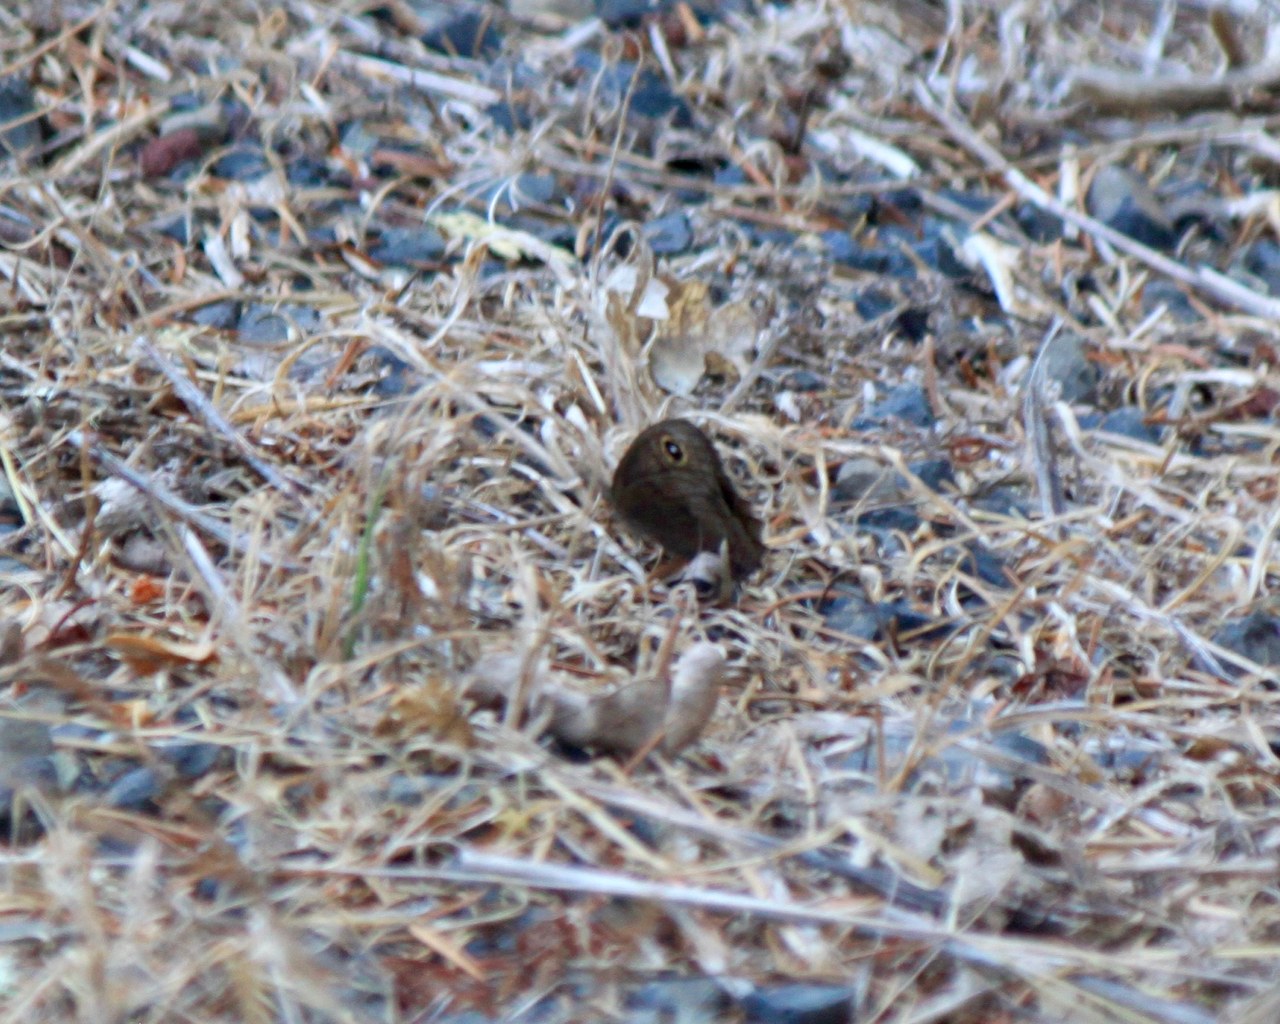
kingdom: Animalia
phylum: Arthropoda
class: Insecta
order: Lepidoptera
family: Nymphalidae
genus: Cercyonis
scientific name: Cercyonis pegala
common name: Common wood-nymph
